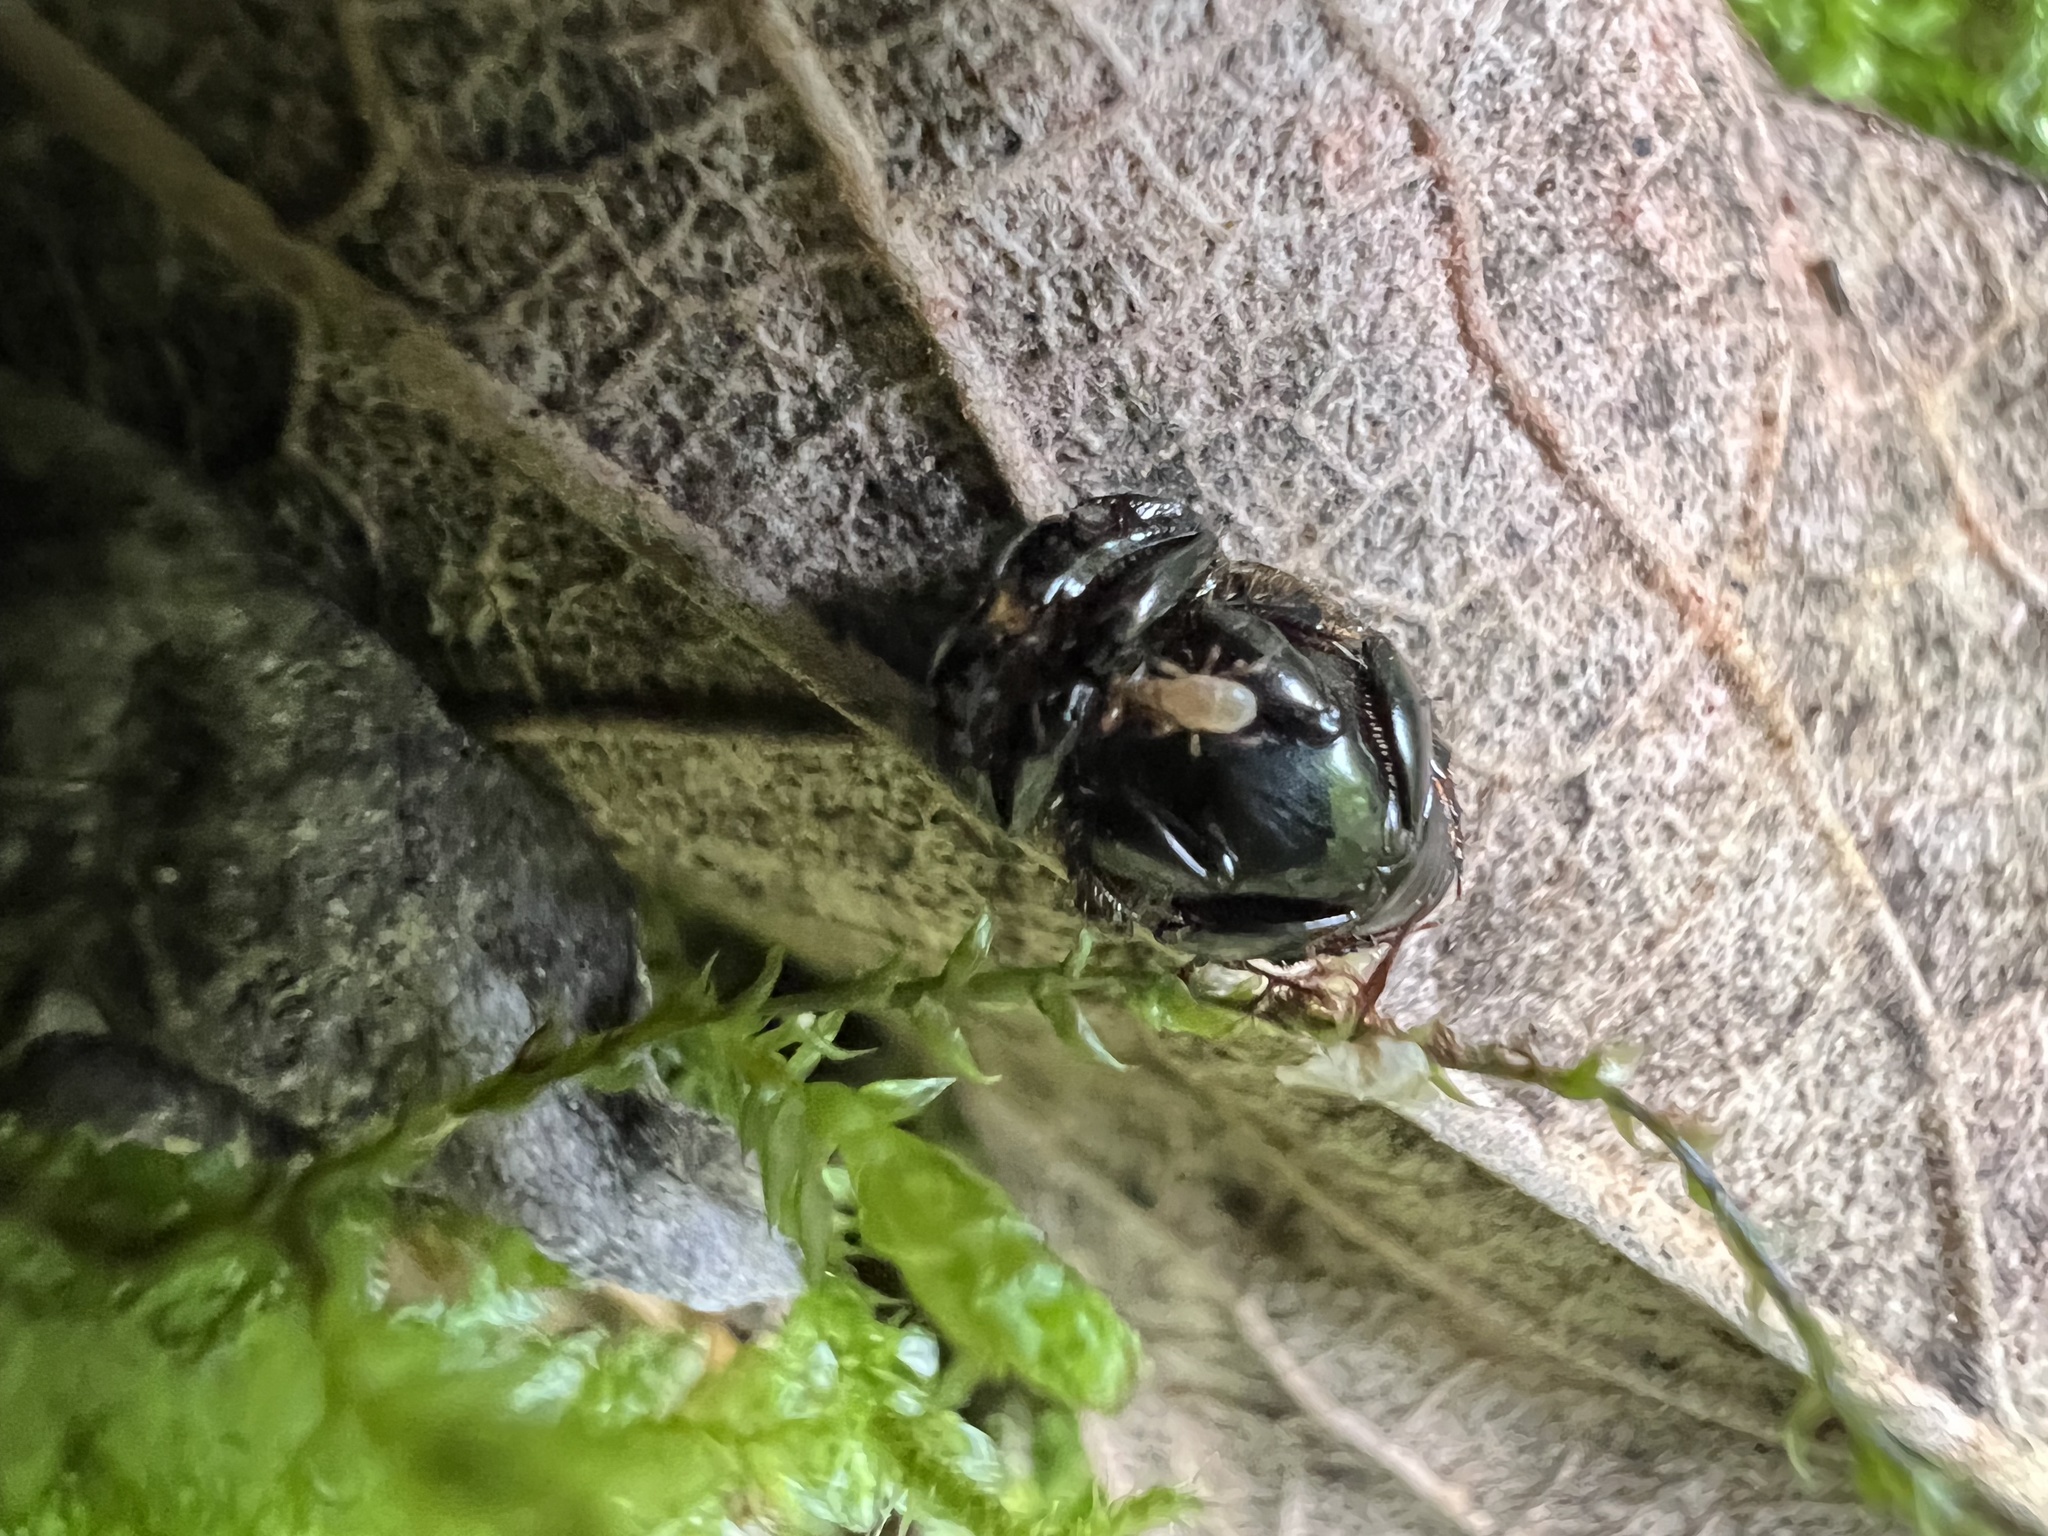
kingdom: Animalia
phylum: Arthropoda
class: Insecta
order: Coleoptera
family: Scarabaeidae
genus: Onthophagus
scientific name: Onthophagus curvicornis
